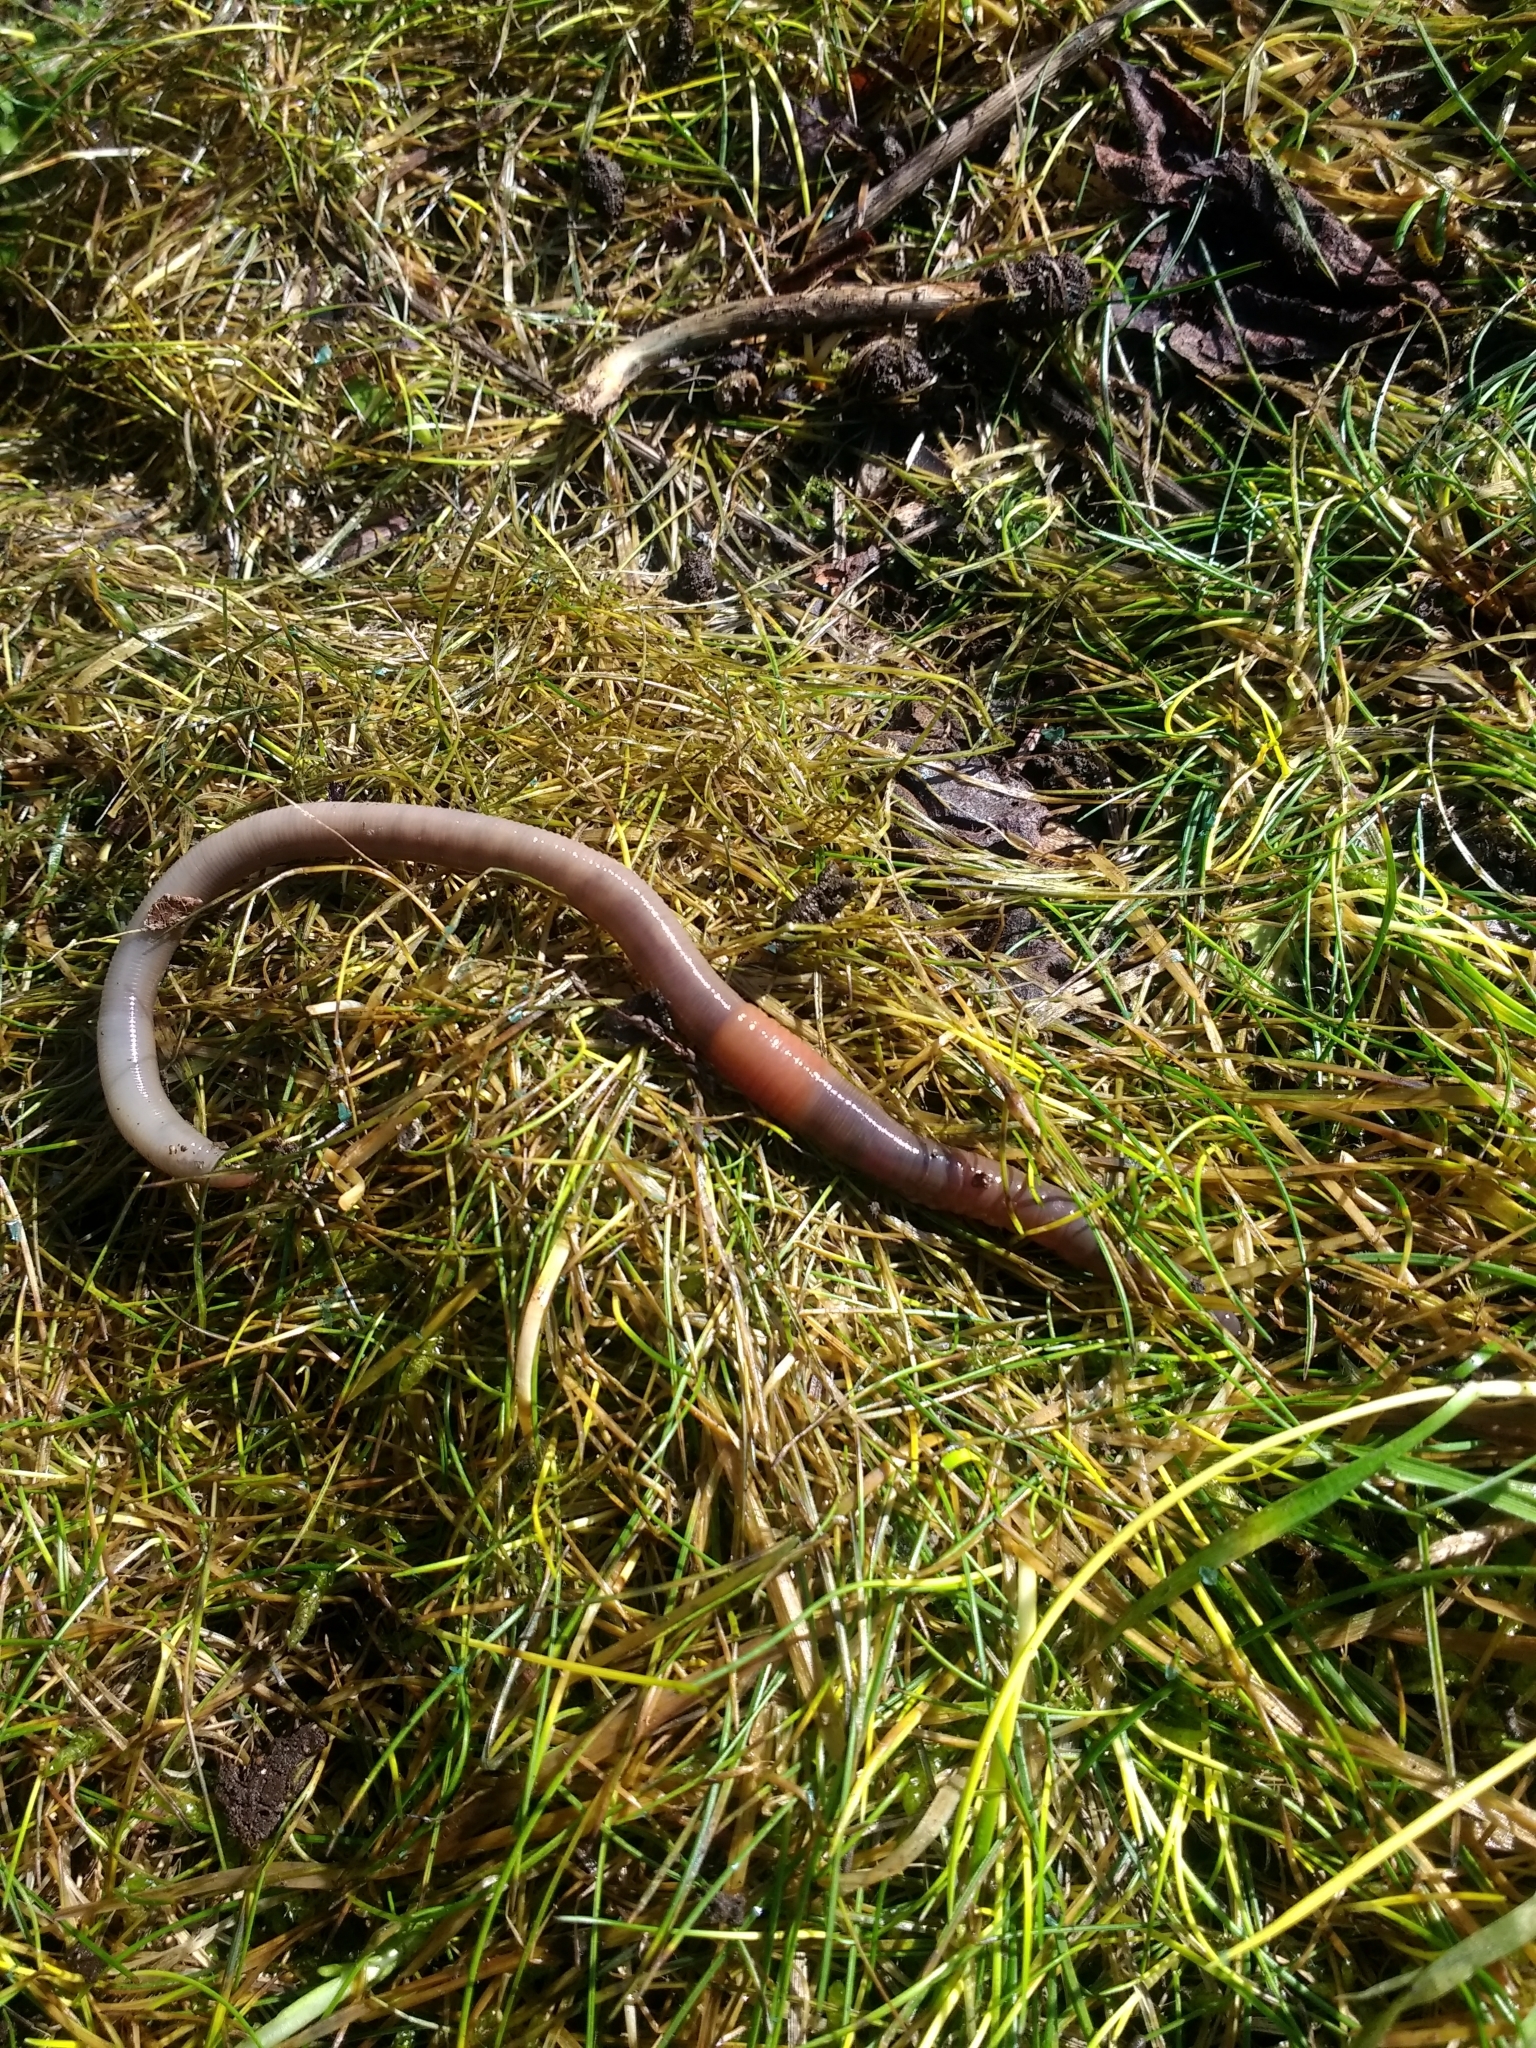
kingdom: Animalia
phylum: Annelida
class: Clitellata
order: Crassiclitellata
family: Lumbricidae
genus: Lumbricus
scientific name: Lumbricus terrestris
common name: Common earthworm
